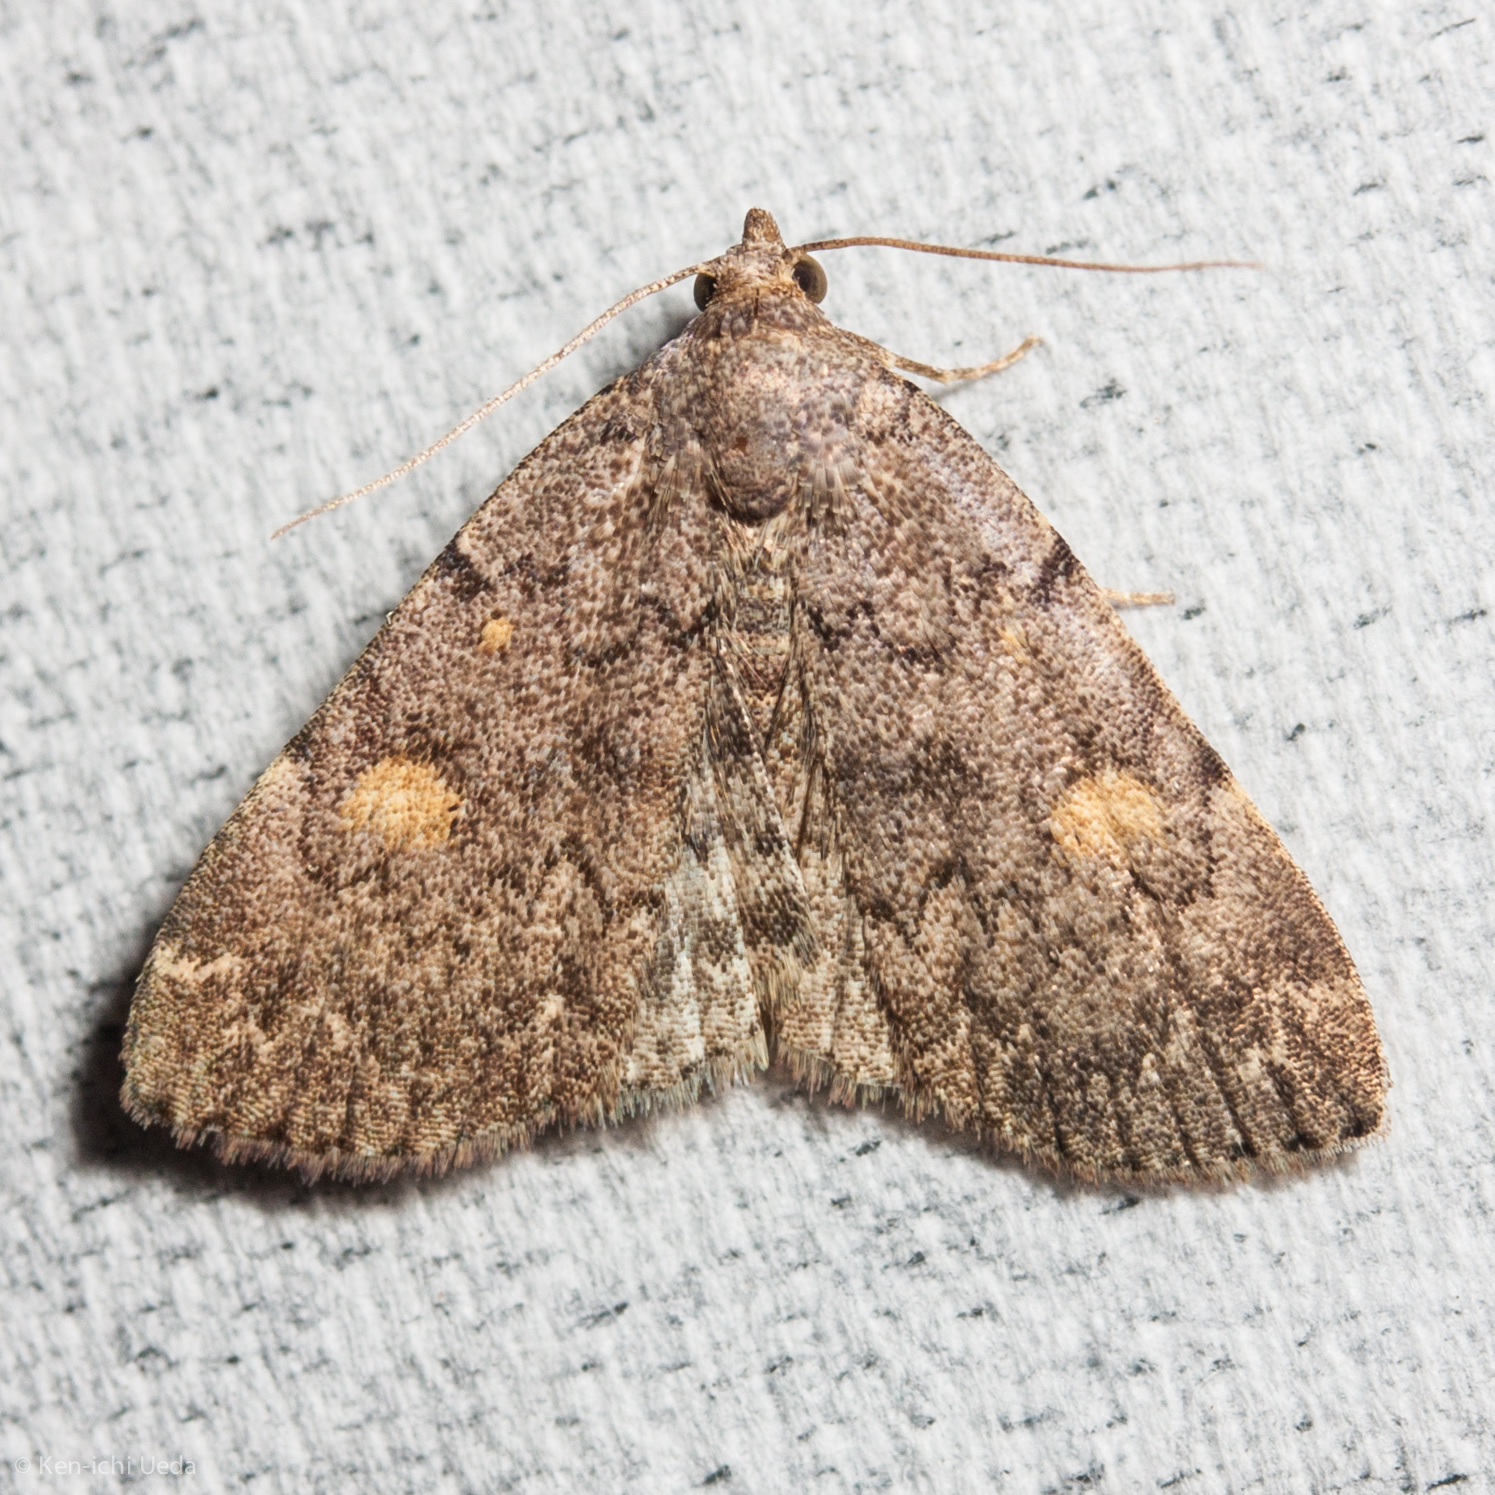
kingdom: Animalia
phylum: Arthropoda
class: Insecta
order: Lepidoptera
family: Erebidae
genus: Idia
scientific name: Idia aemula
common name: Common idia moth
